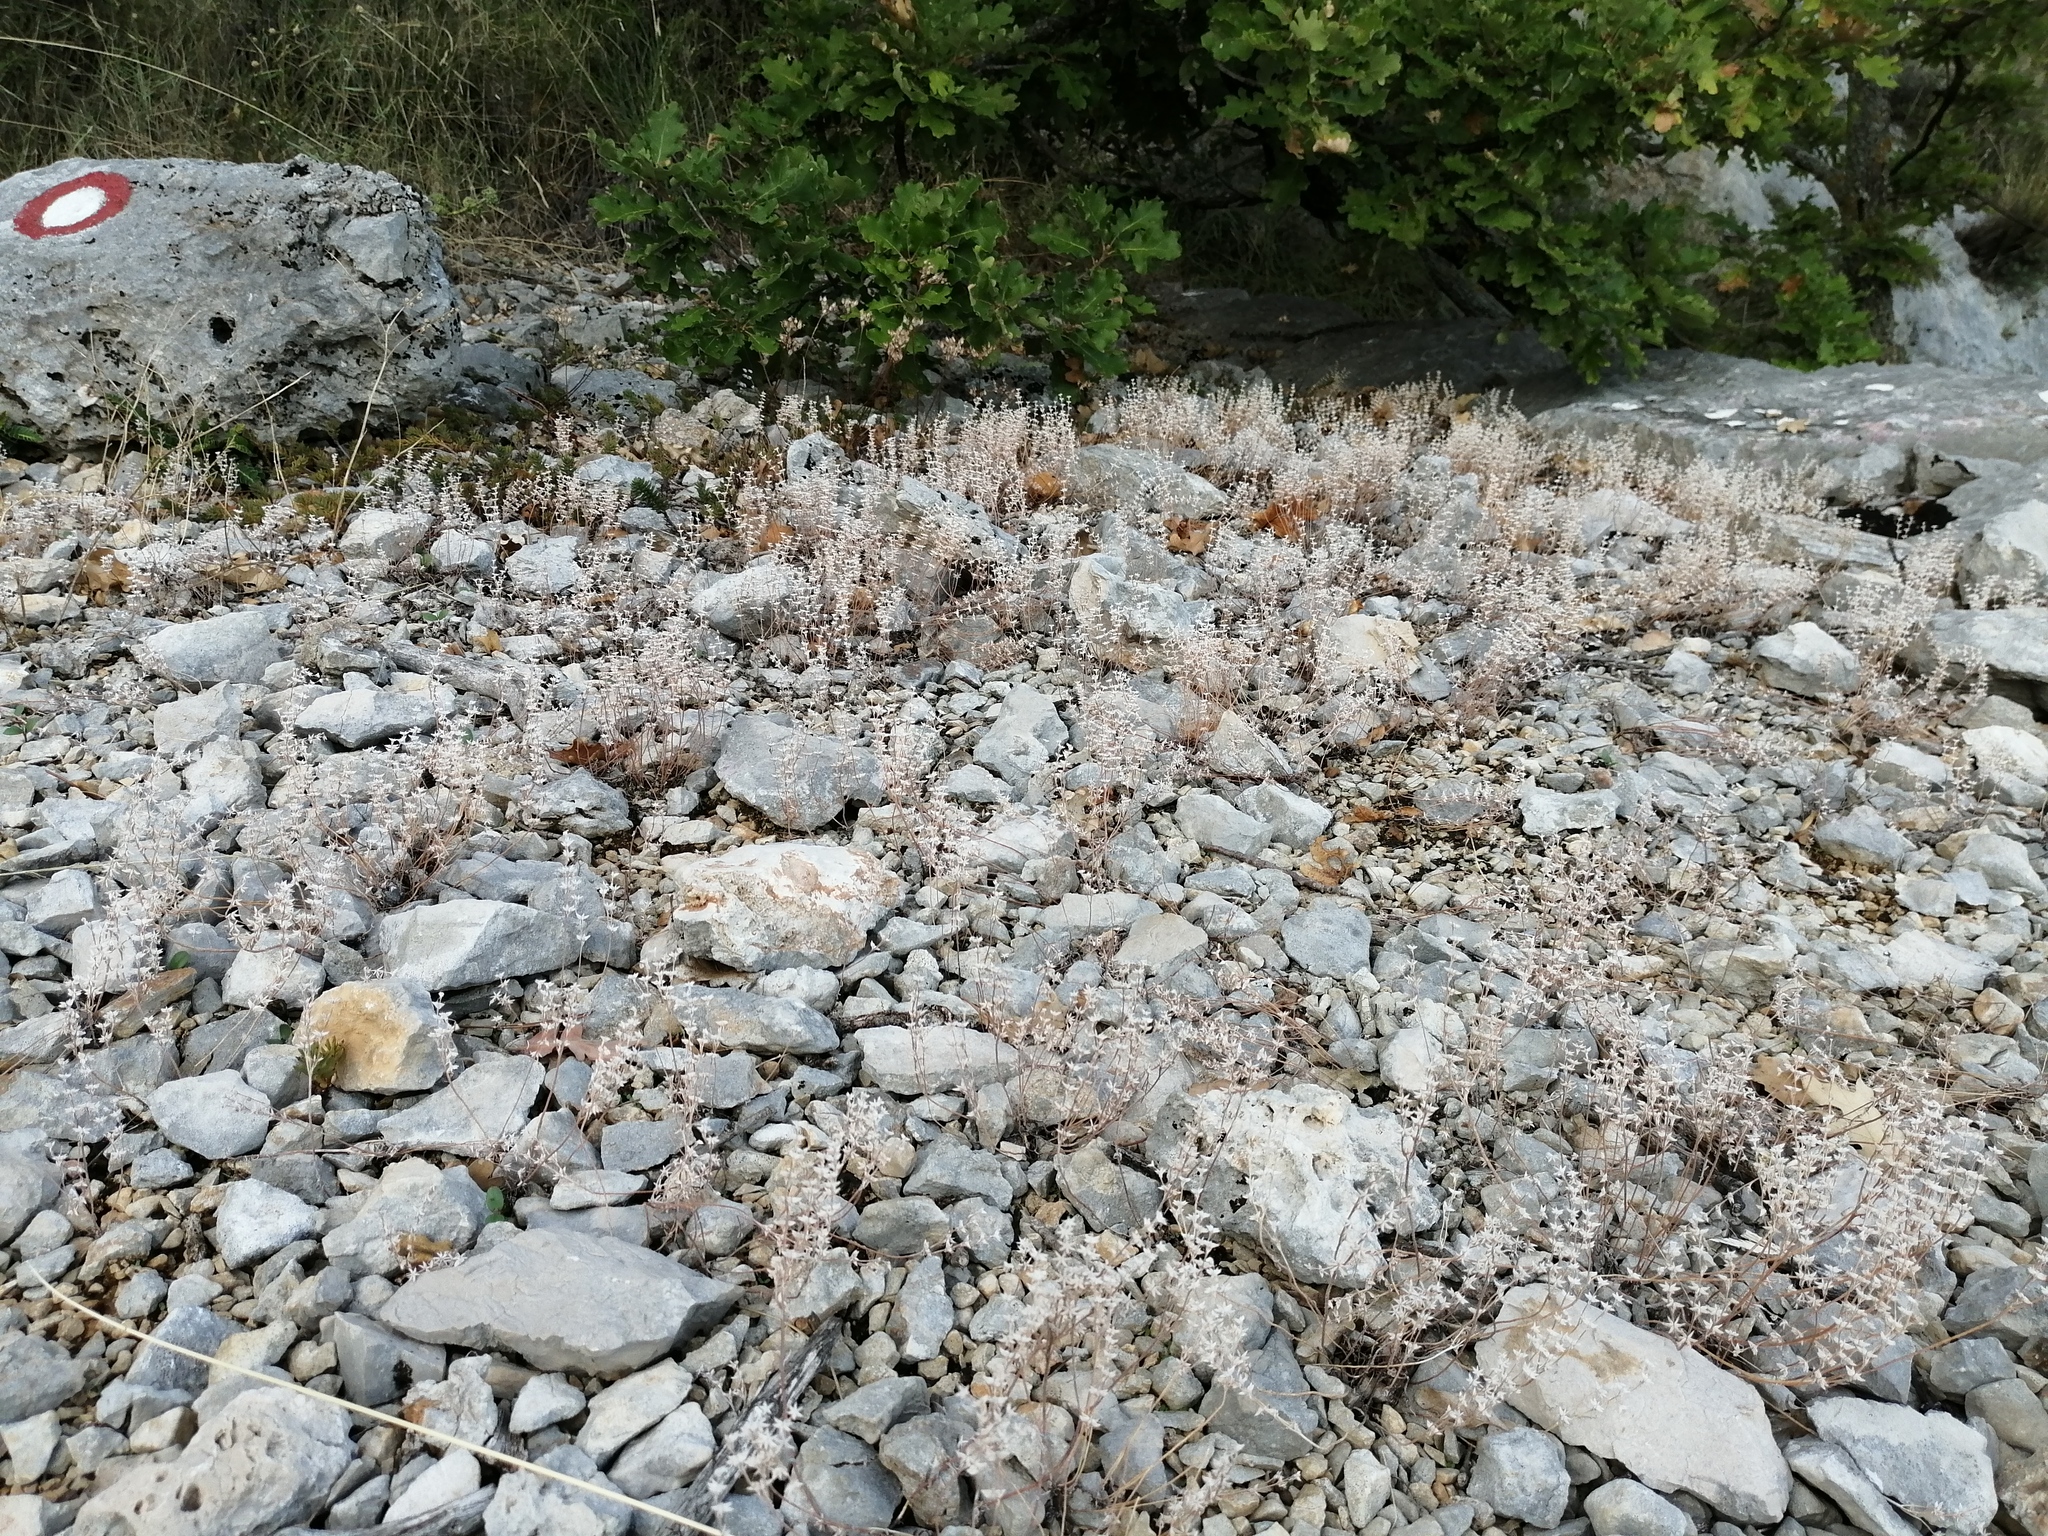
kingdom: Plantae
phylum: Tracheophyta
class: Magnoliopsida
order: Saxifragales
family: Crassulaceae
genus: Sedum
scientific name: Sedum hispanicum
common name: Spanish stonecrop
